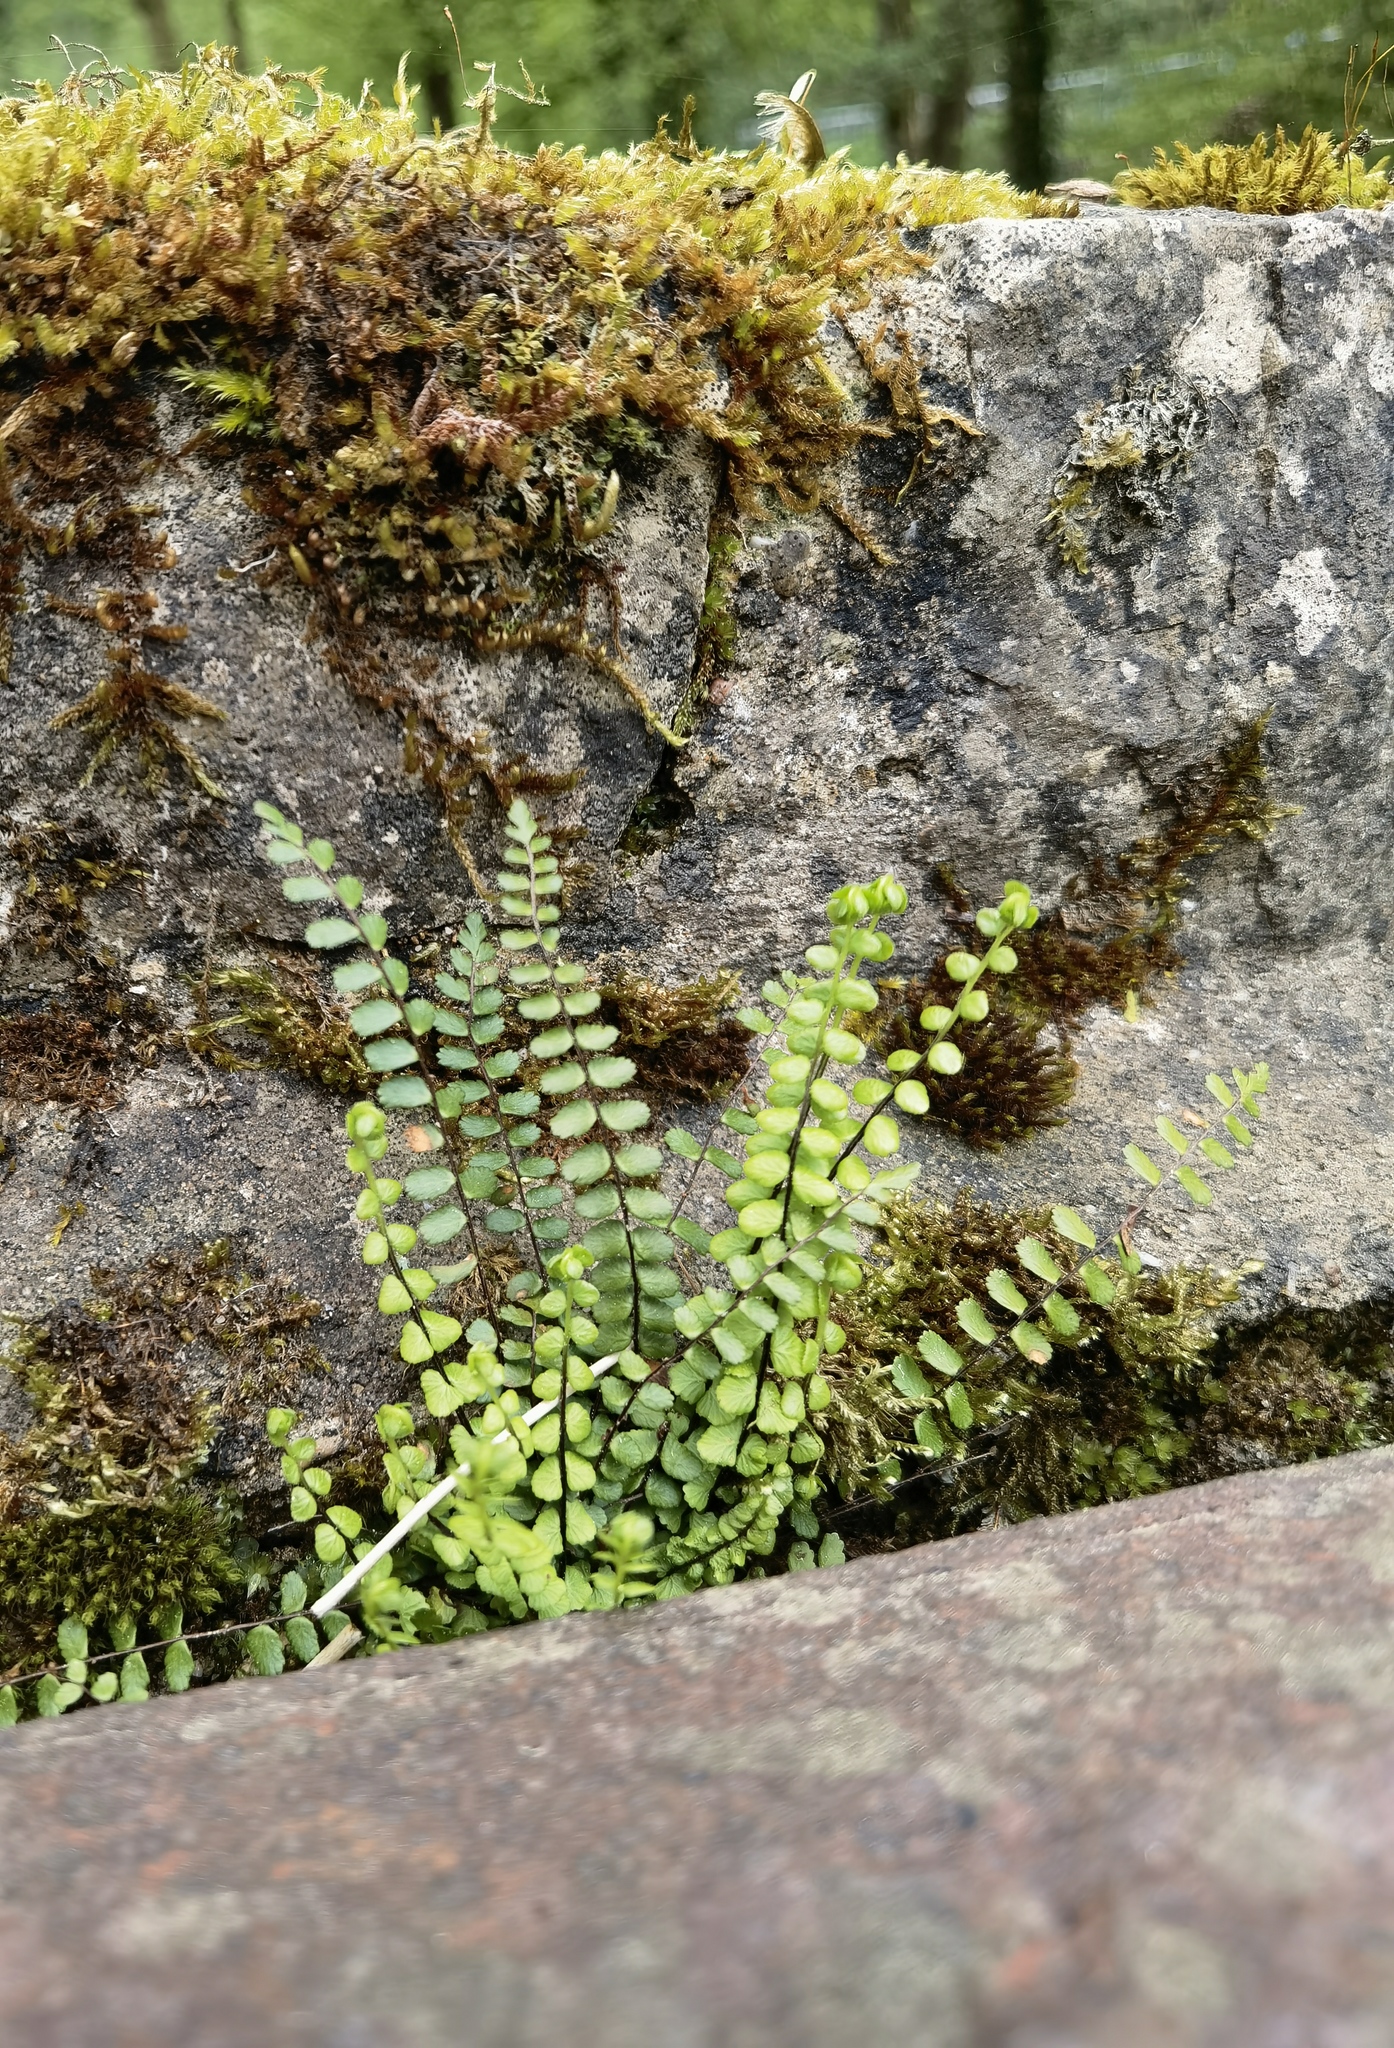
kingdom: Plantae
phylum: Tracheophyta
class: Polypodiopsida
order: Polypodiales
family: Aspleniaceae
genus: Asplenium
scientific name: Asplenium trichomanes
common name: Maidenhair spleenwort
